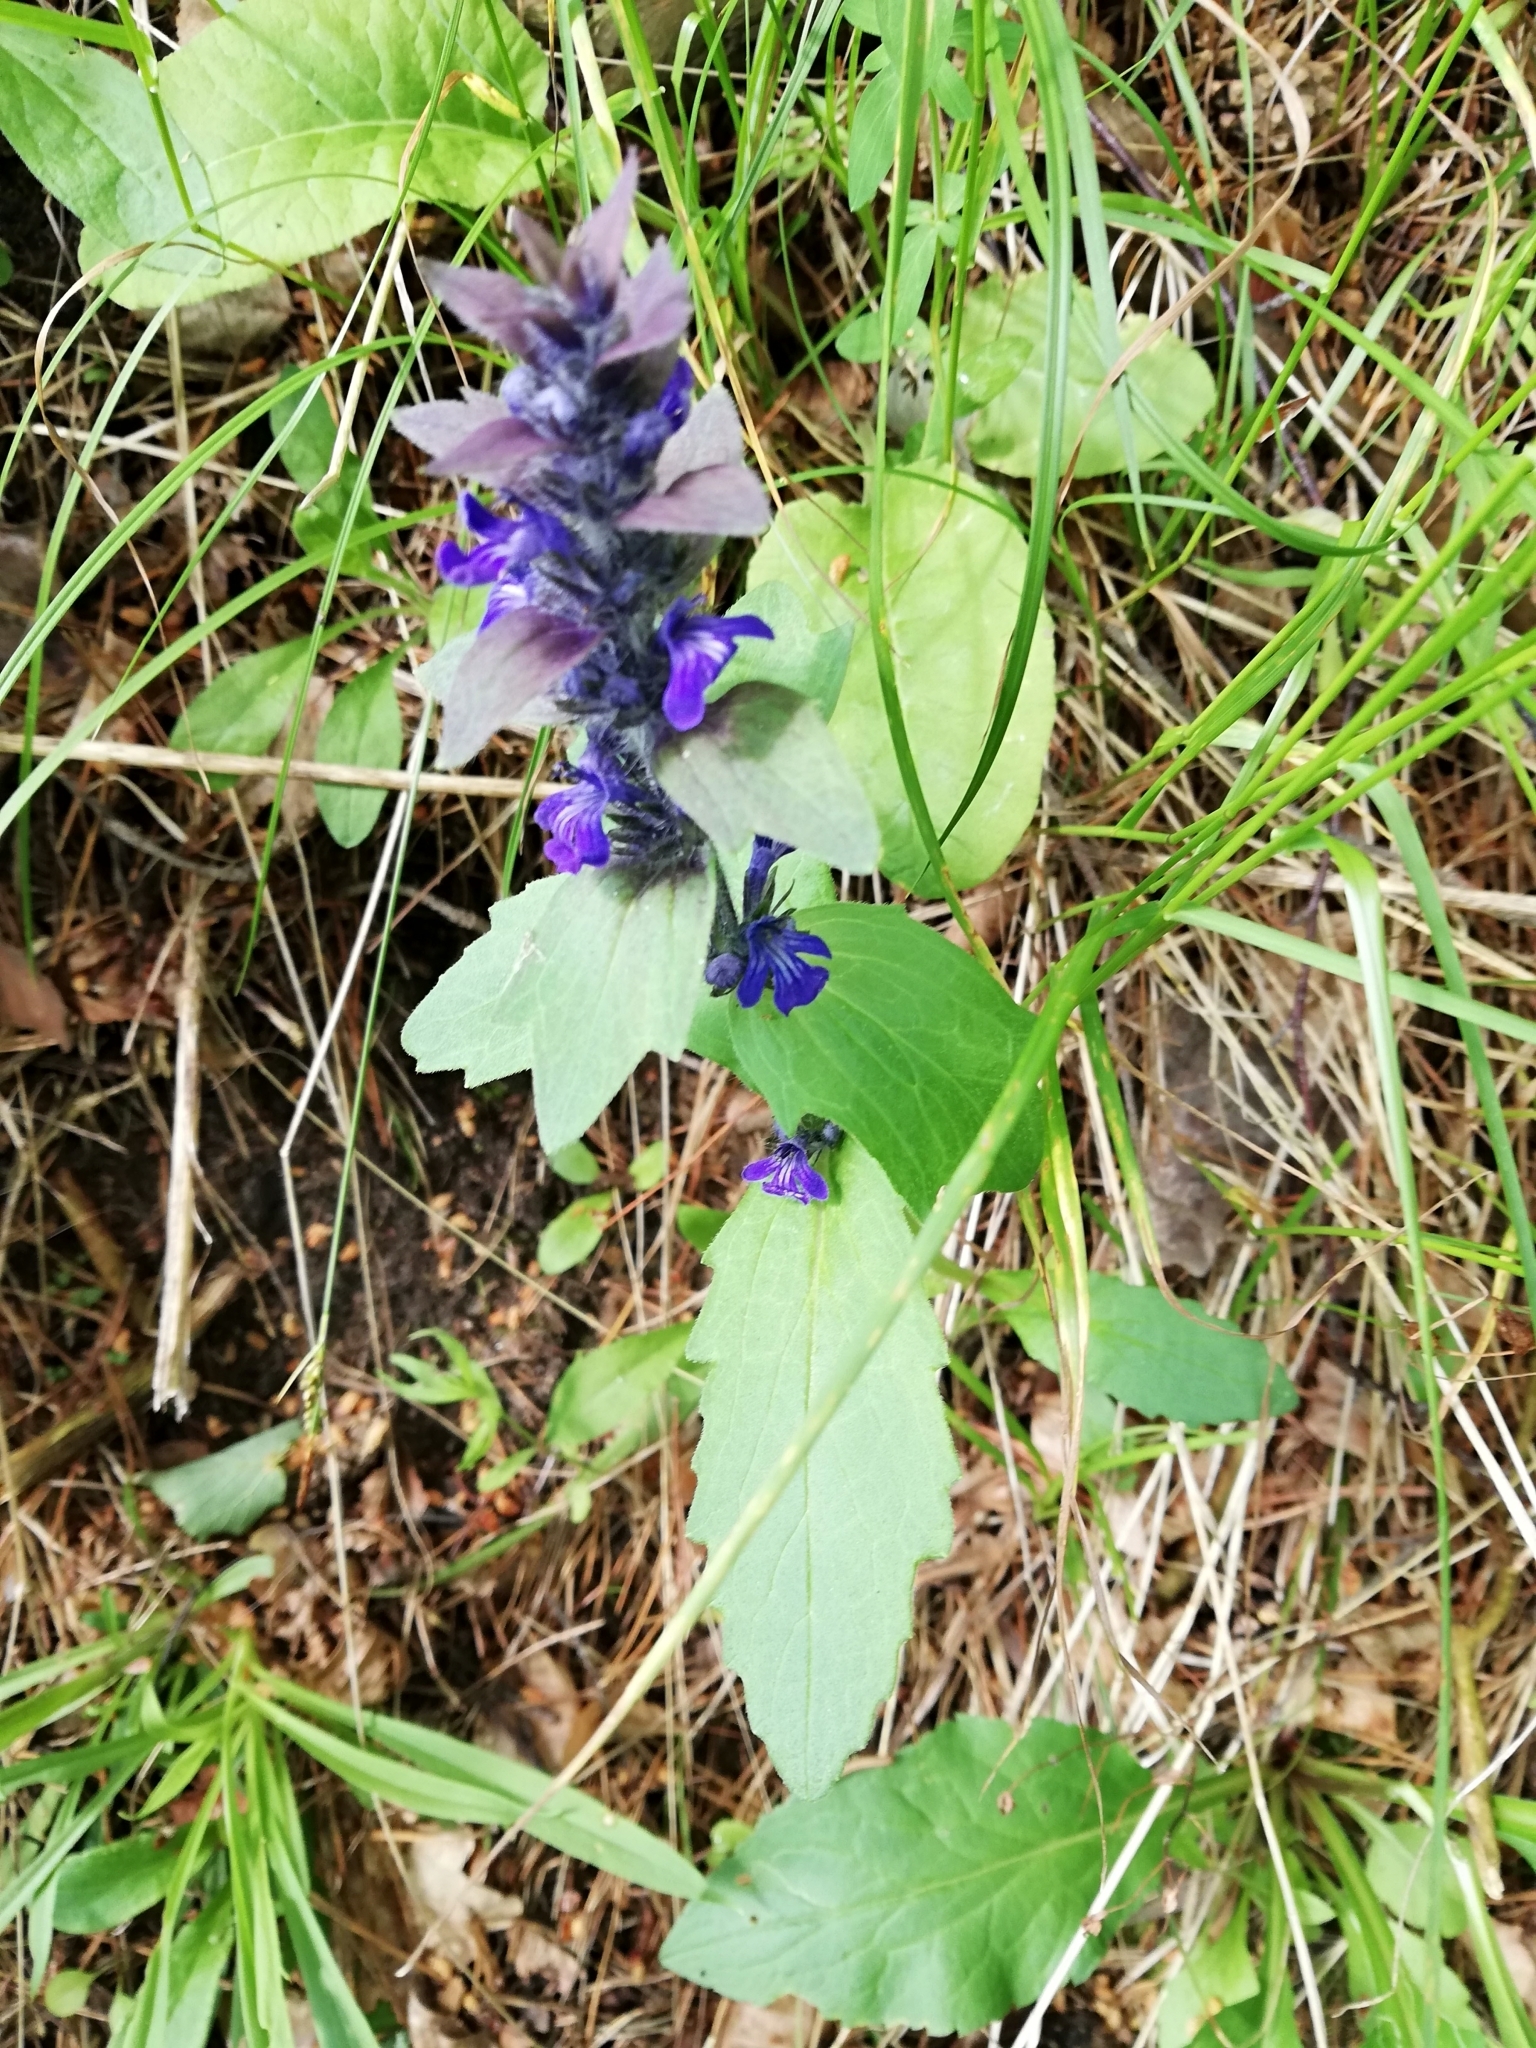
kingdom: Plantae
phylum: Tracheophyta
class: Magnoliopsida
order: Lamiales
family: Lamiaceae
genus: Ajuga
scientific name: Ajuga genevensis
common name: Blue bugle
